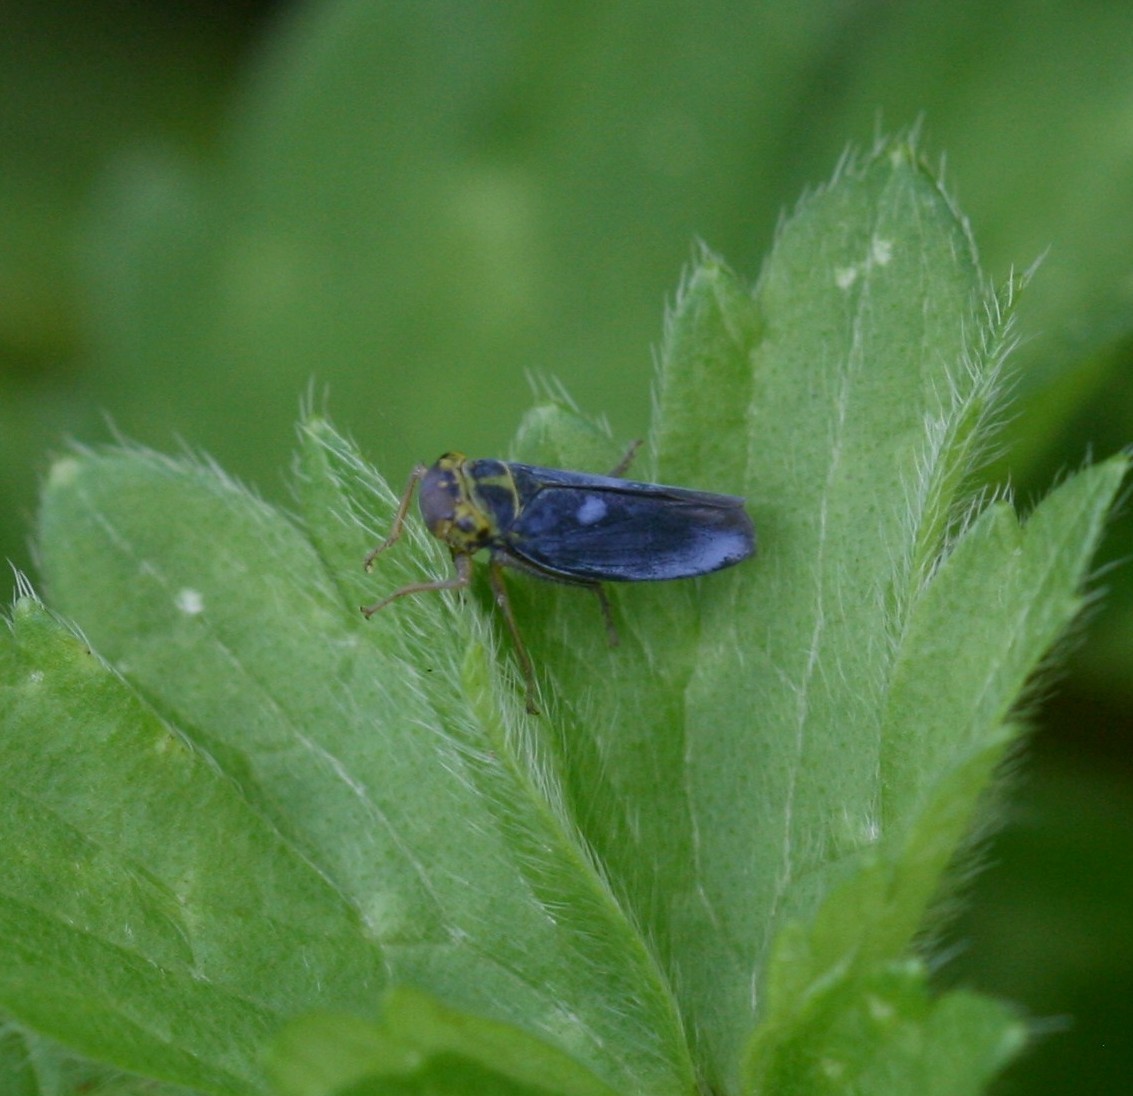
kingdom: Animalia
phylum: Arthropoda
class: Insecta
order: Hemiptera
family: Cicadellidae
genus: Cicadella
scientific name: Cicadella viridis
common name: Leafhopper
